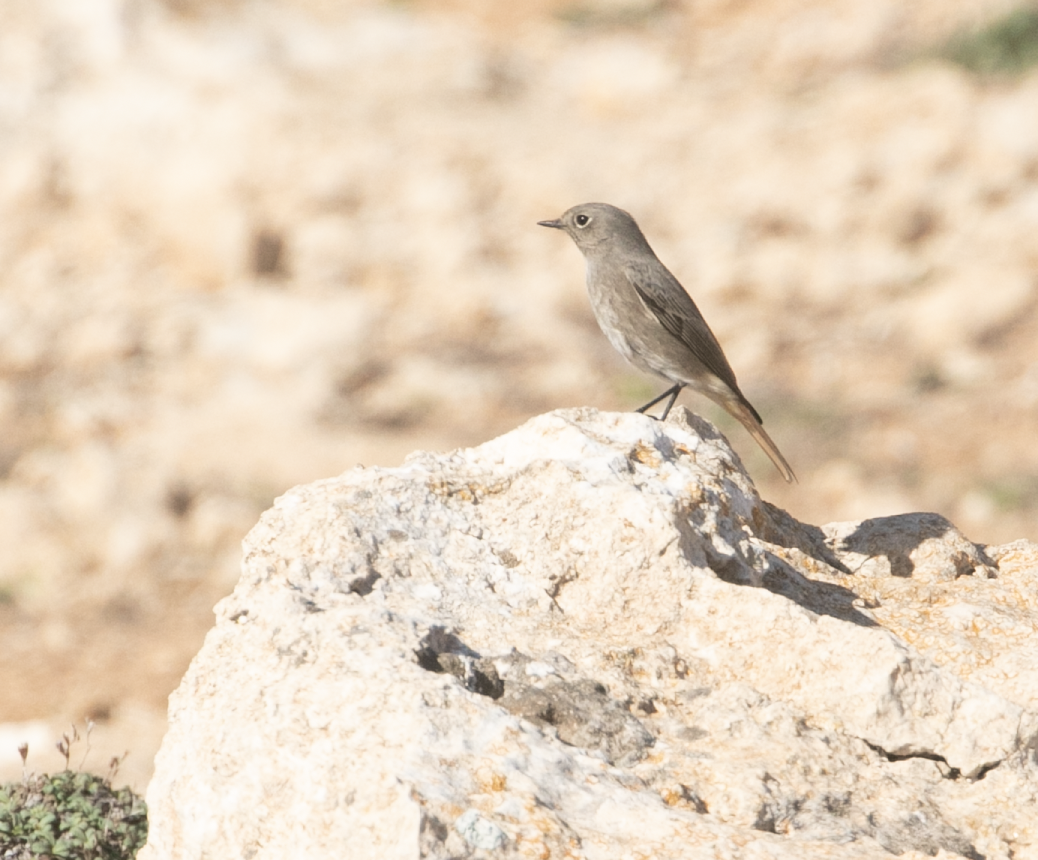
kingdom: Animalia
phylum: Chordata
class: Aves
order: Passeriformes
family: Muscicapidae
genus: Phoenicurus
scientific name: Phoenicurus ochruros
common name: Black redstart
